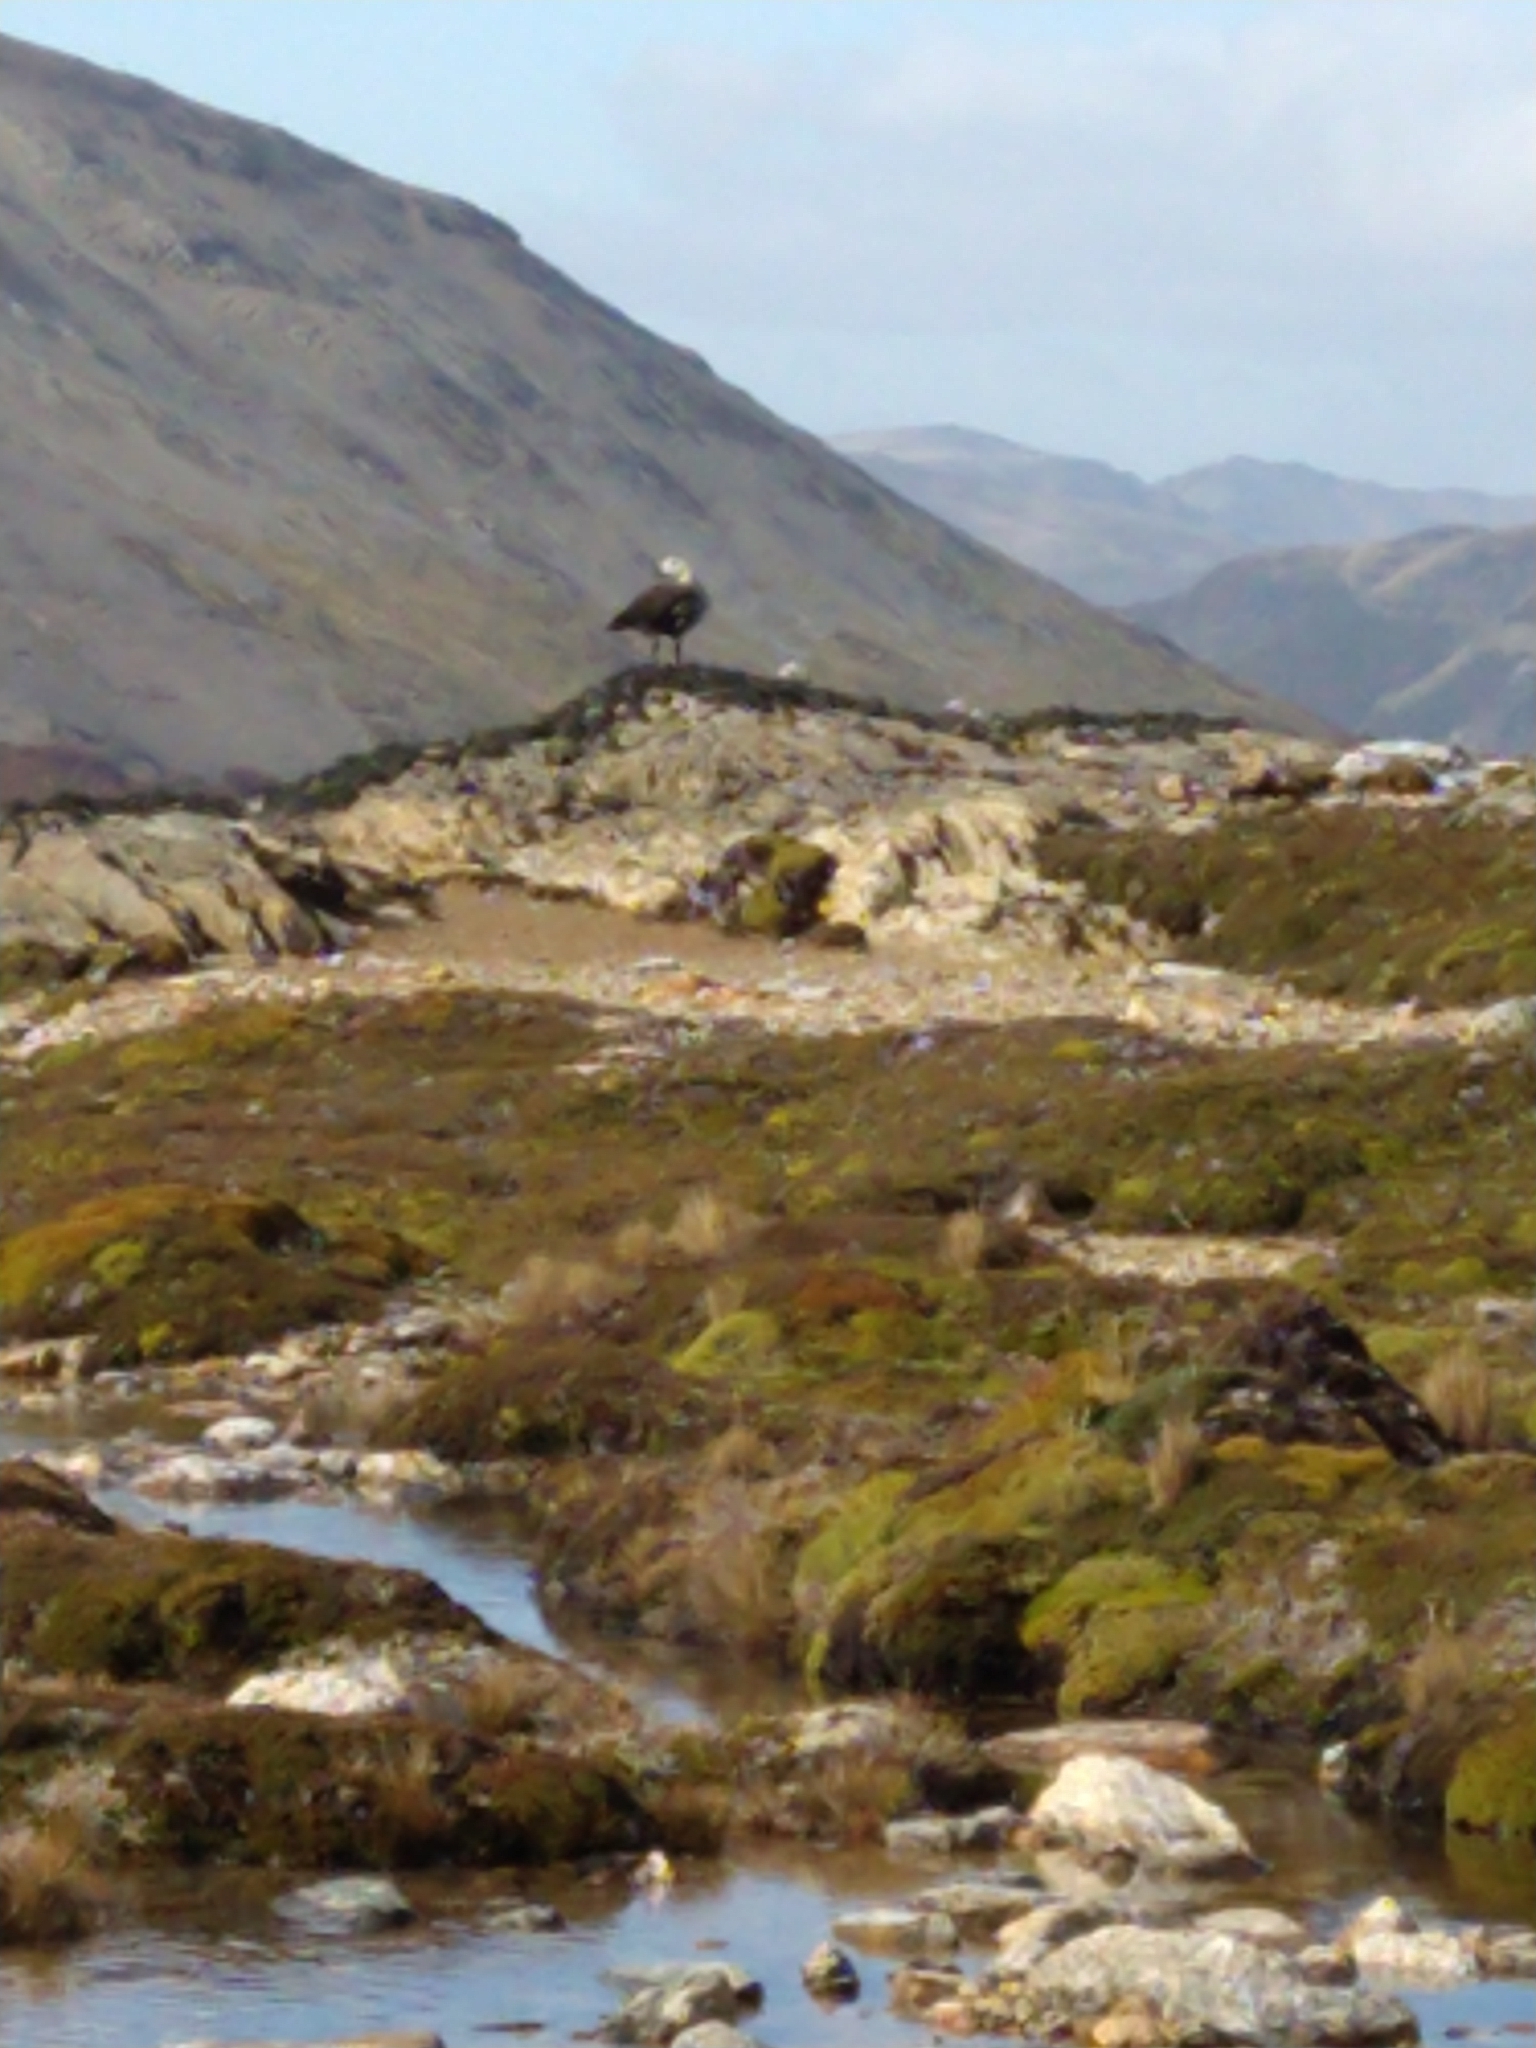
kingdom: Animalia
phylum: Chordata
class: Aves
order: Anseriformes
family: Anatidae
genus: Chloephaga
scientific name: Chloephaga picta
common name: Upland goose
